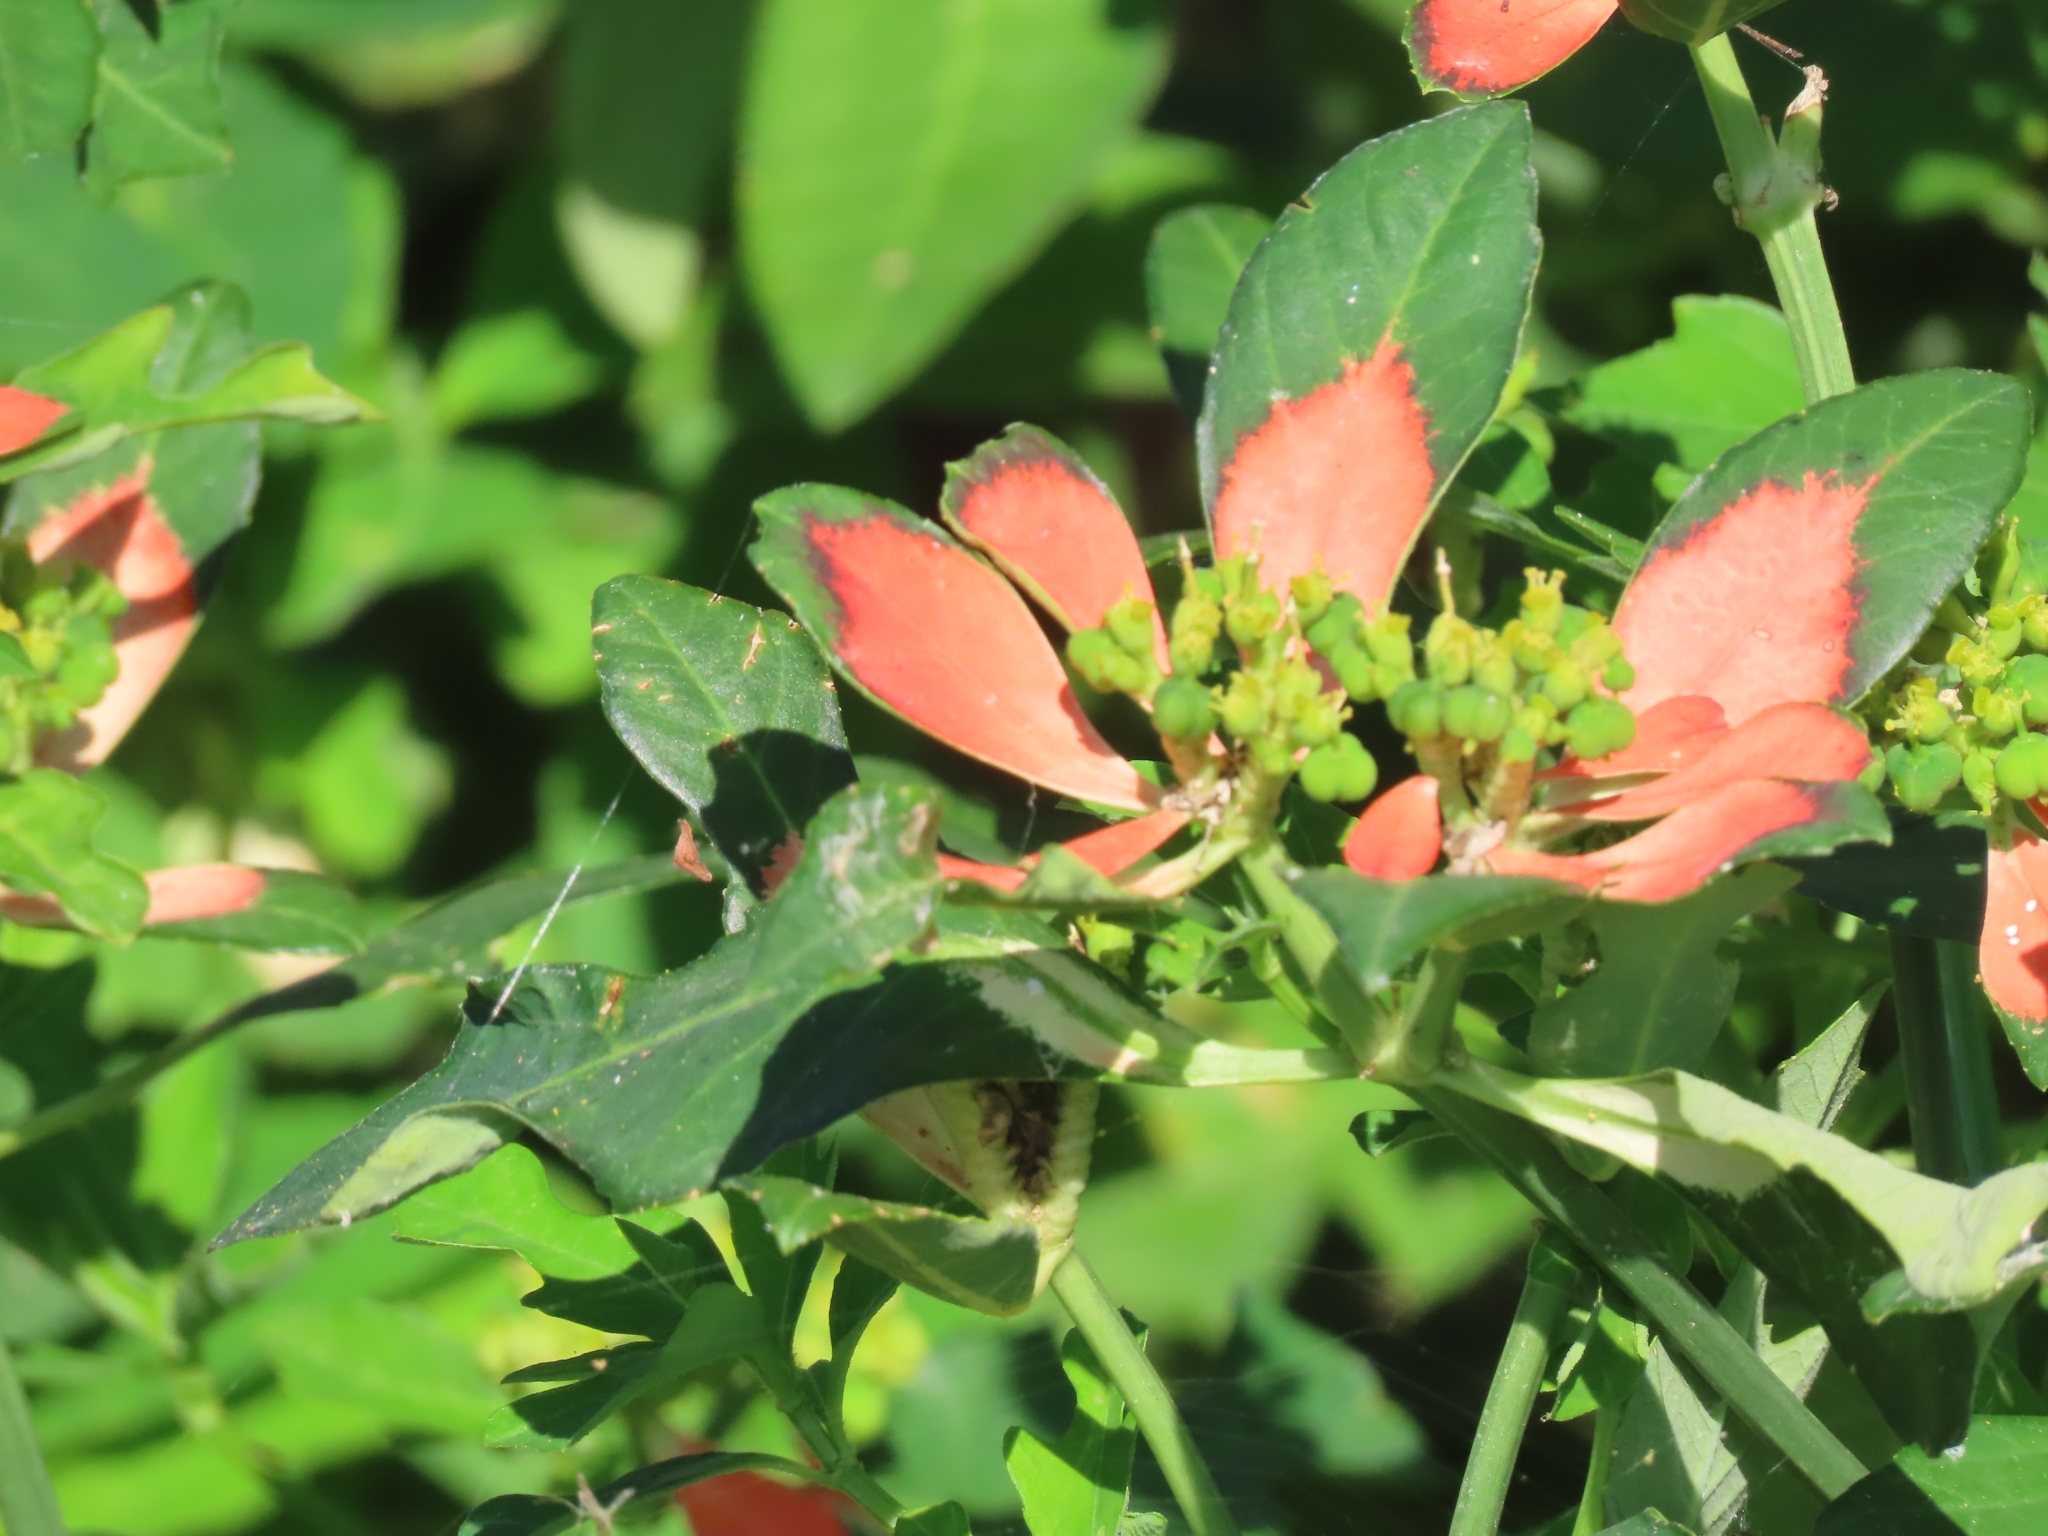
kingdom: Plantae
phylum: Tracheophyta
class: Magnoliopsida
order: Malpighiales
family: Euphorbiaceae
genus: Euphorbia
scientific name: Euphorbia heterophylla
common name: Mexican fireplant
